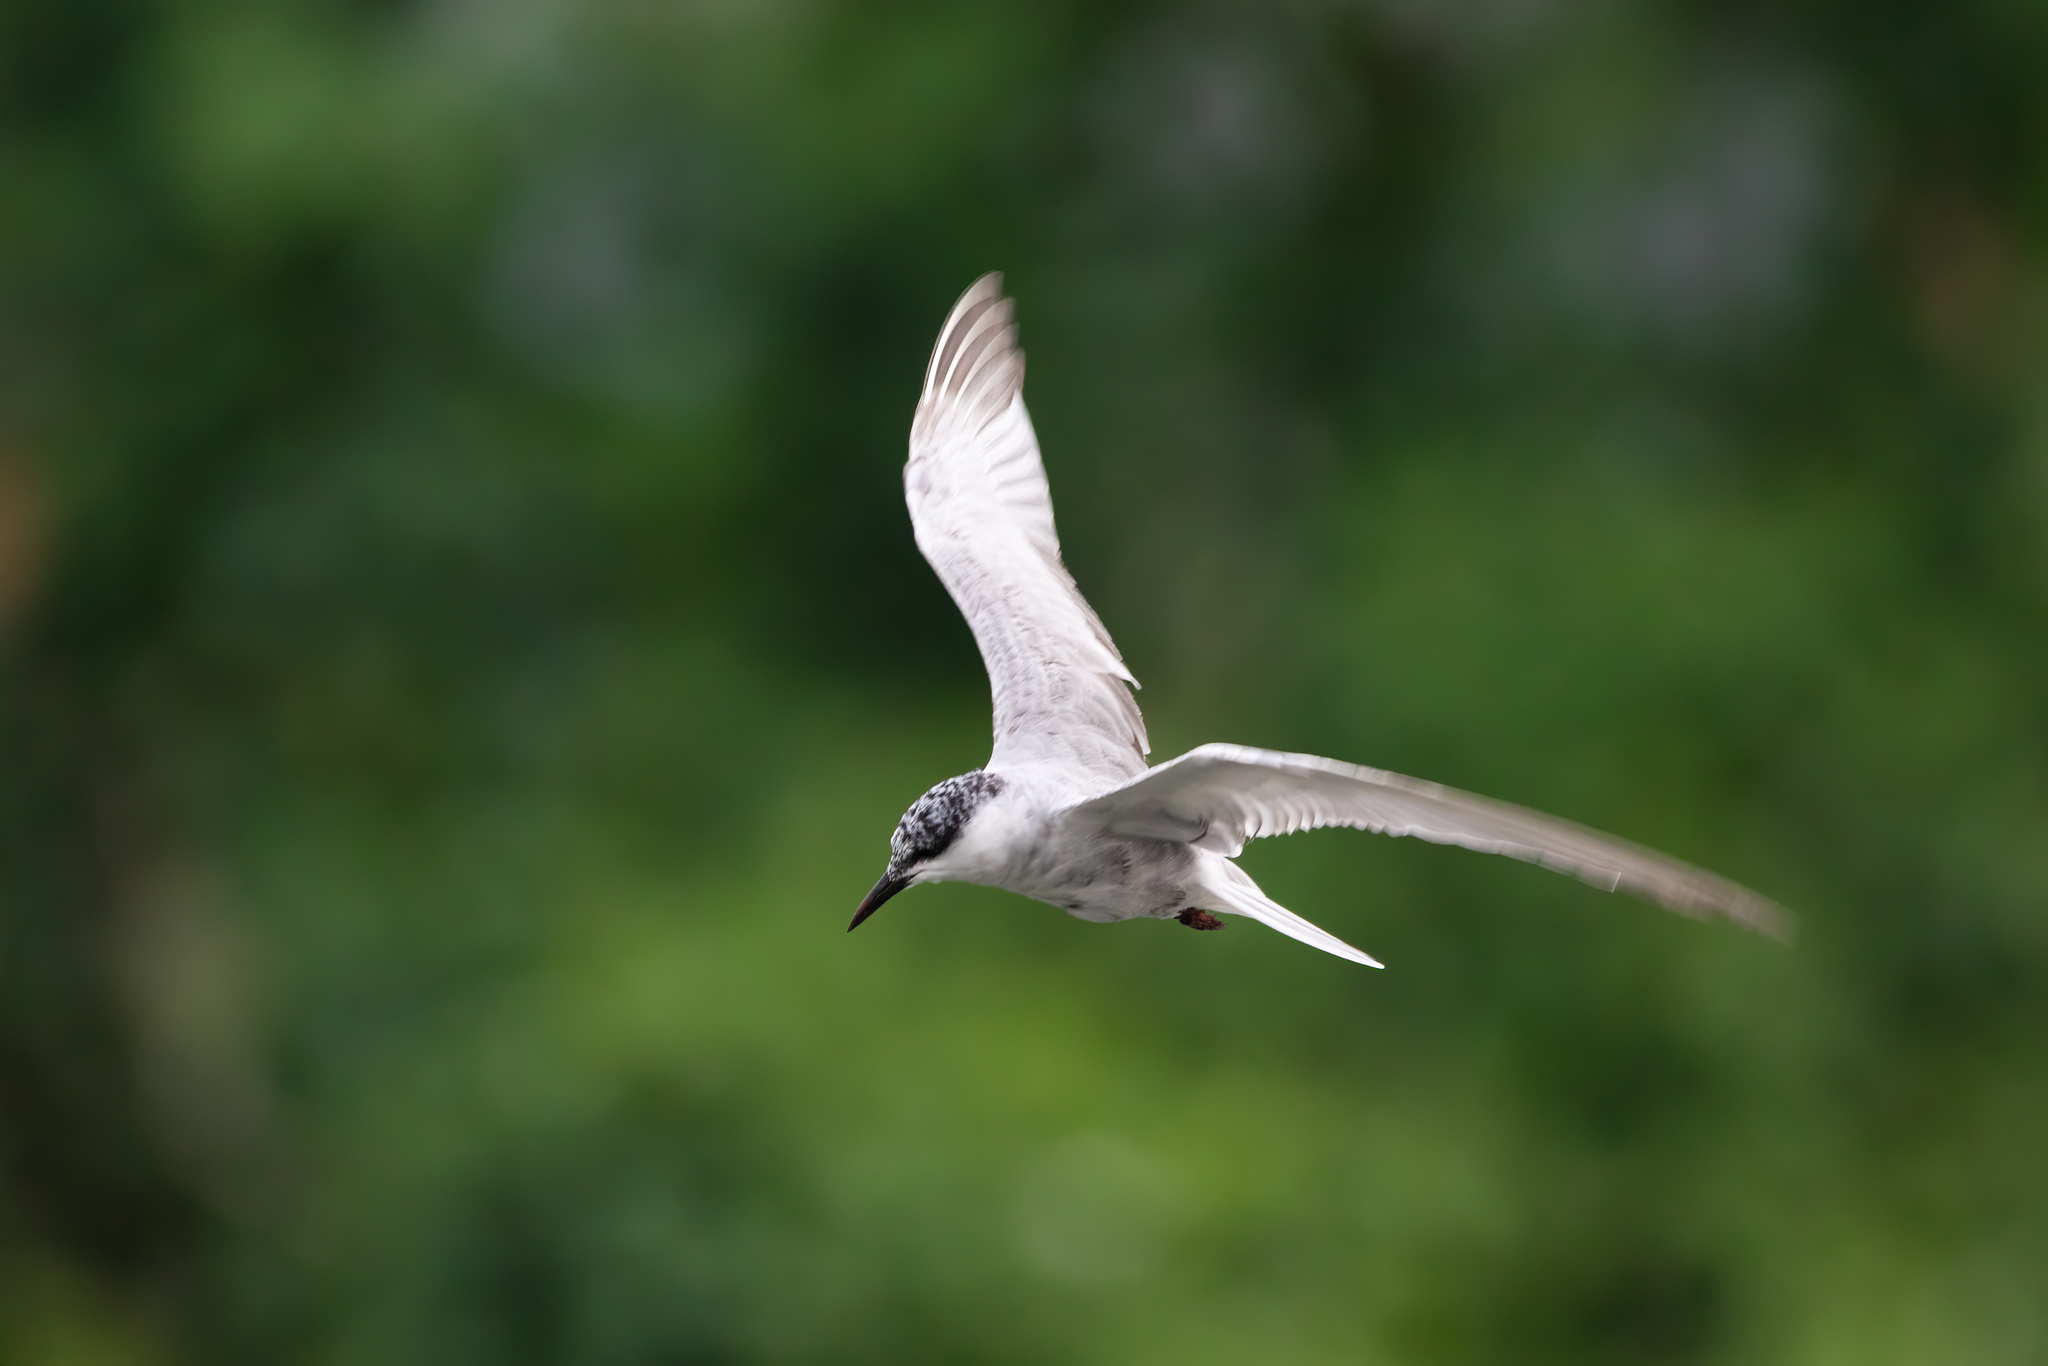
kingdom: Animalia
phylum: Chordata
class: Aves
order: Charadriiformes
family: Laridae
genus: Chlidonias
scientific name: Chlidonias hybrida
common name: Whiskered tern
